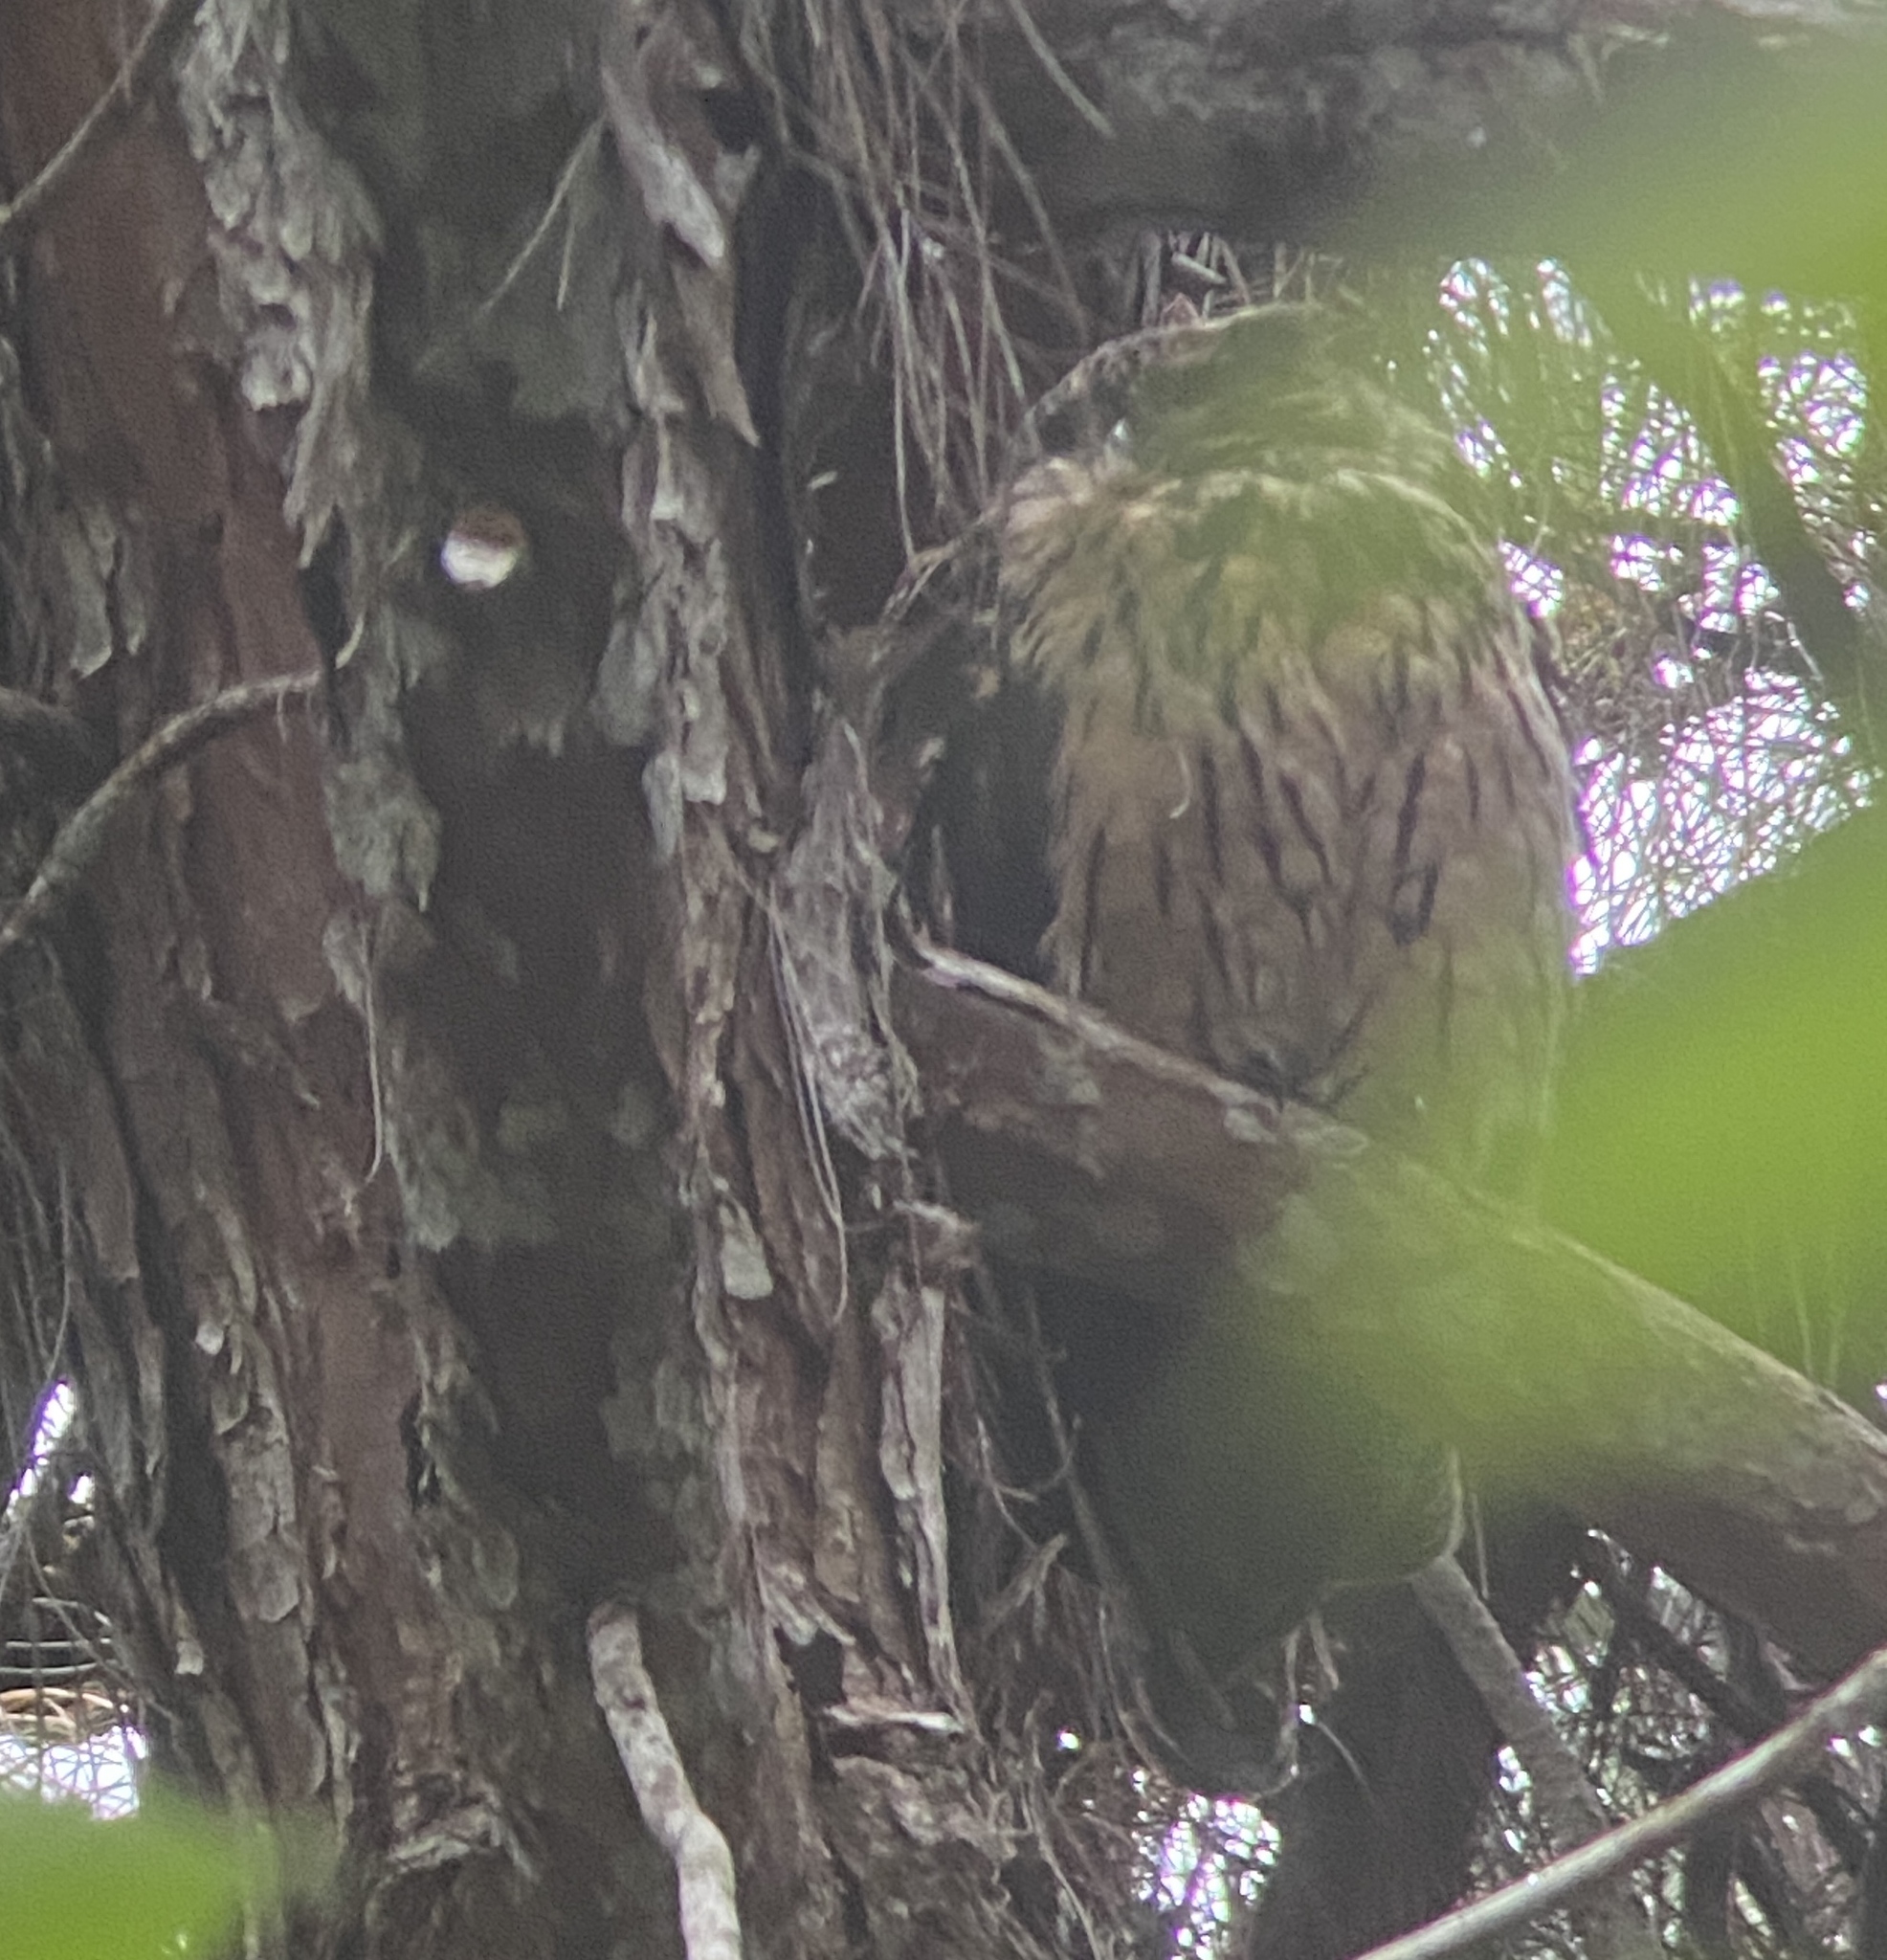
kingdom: Animalia
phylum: Chordata
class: Aves
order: Strigiformes
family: Strigidae
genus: Asio
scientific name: Asio madagascariensis
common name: Madagascar long-eared owl
